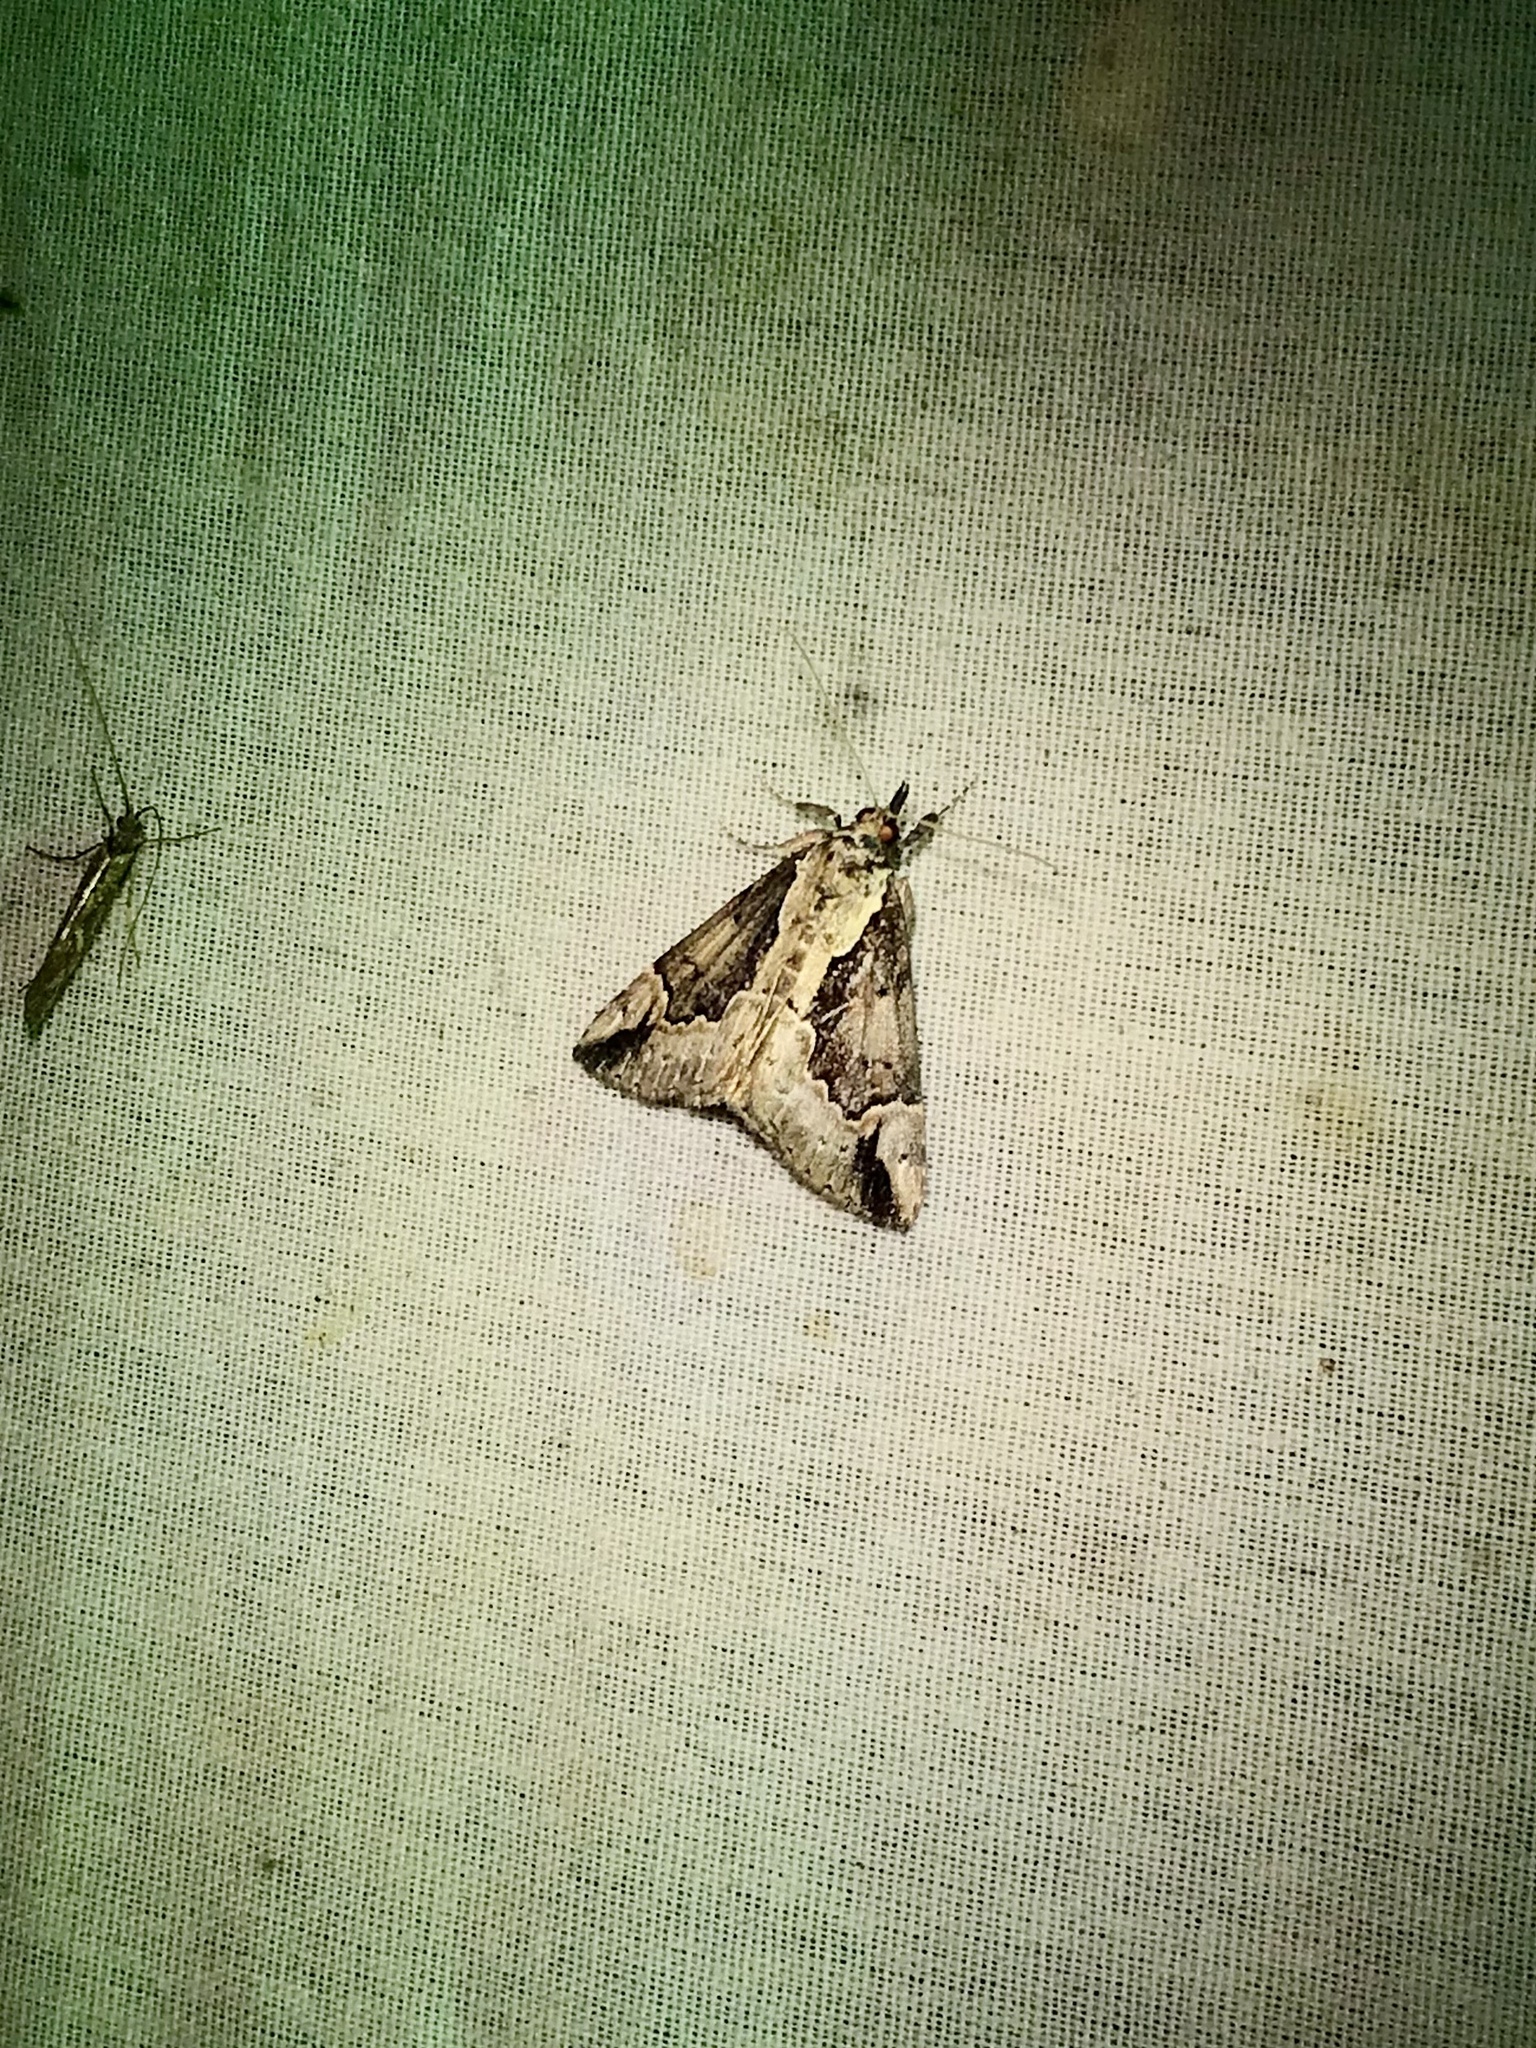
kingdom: Animalia
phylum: Arthropoda
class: Insecta
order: Lepidoptera
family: Erebidae
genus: Hypena
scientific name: Hypena baltimoralis
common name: Baltimore snout
